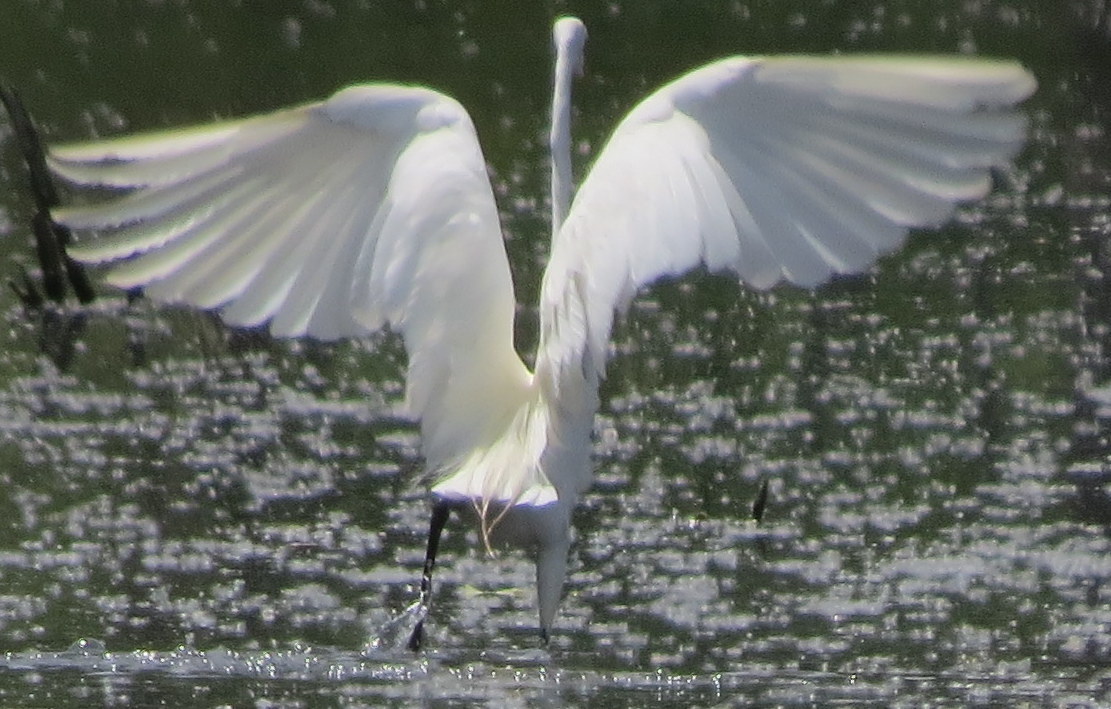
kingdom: Animalia
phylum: Chordata
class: Aves
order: Pelecaniformes
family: Ardeidae
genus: Ardea
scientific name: Ardea alba
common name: Great egret
